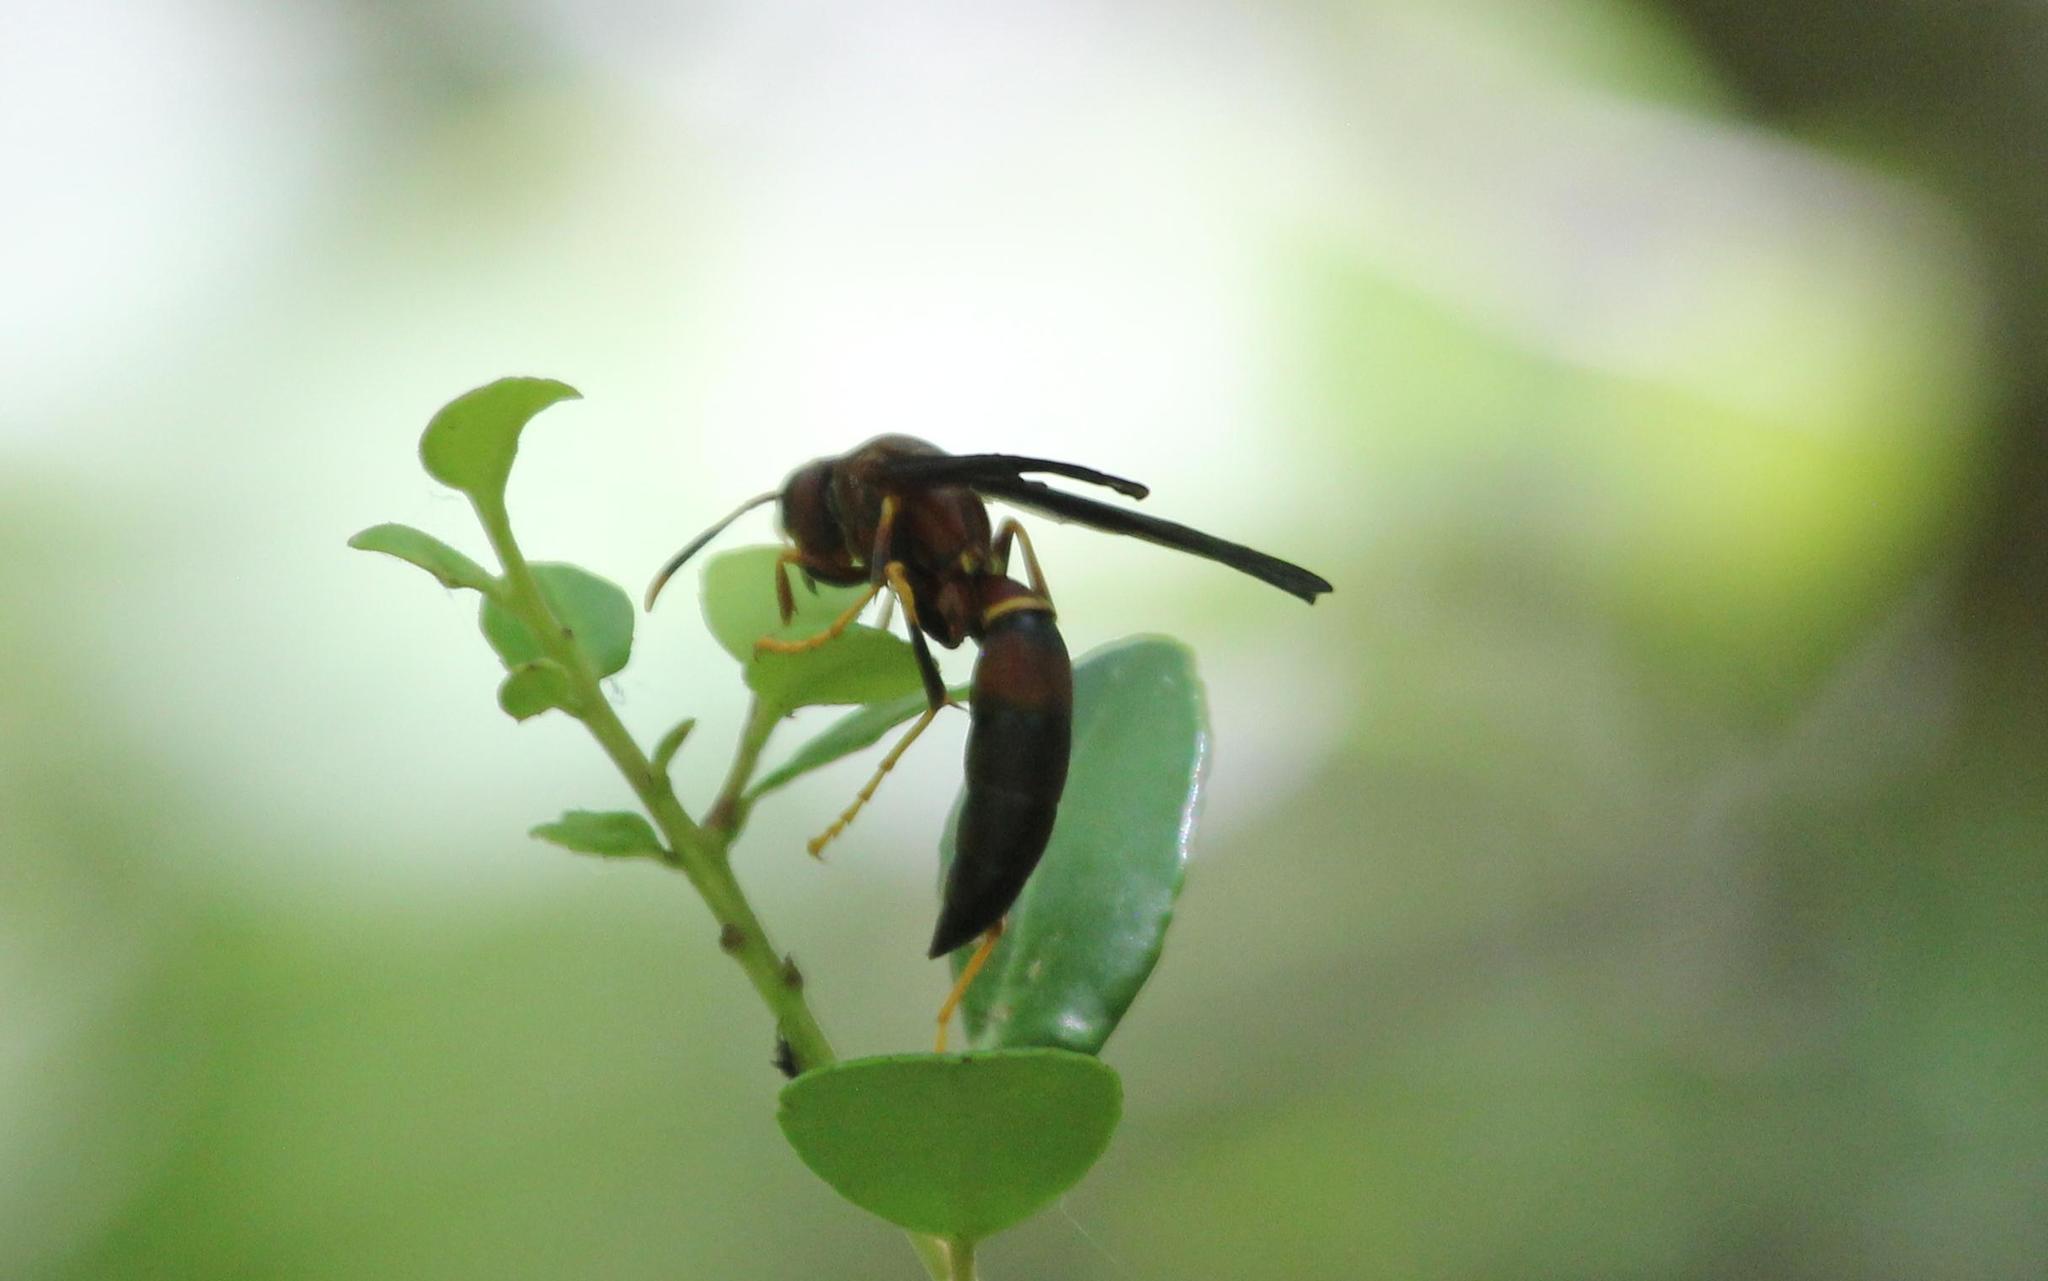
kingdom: Animalia
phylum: Arthropoda
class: Insecta
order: Hymenoptera
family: Eumenidae
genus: Polistes
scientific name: Polistes annularis
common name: Ringed paper wasp
